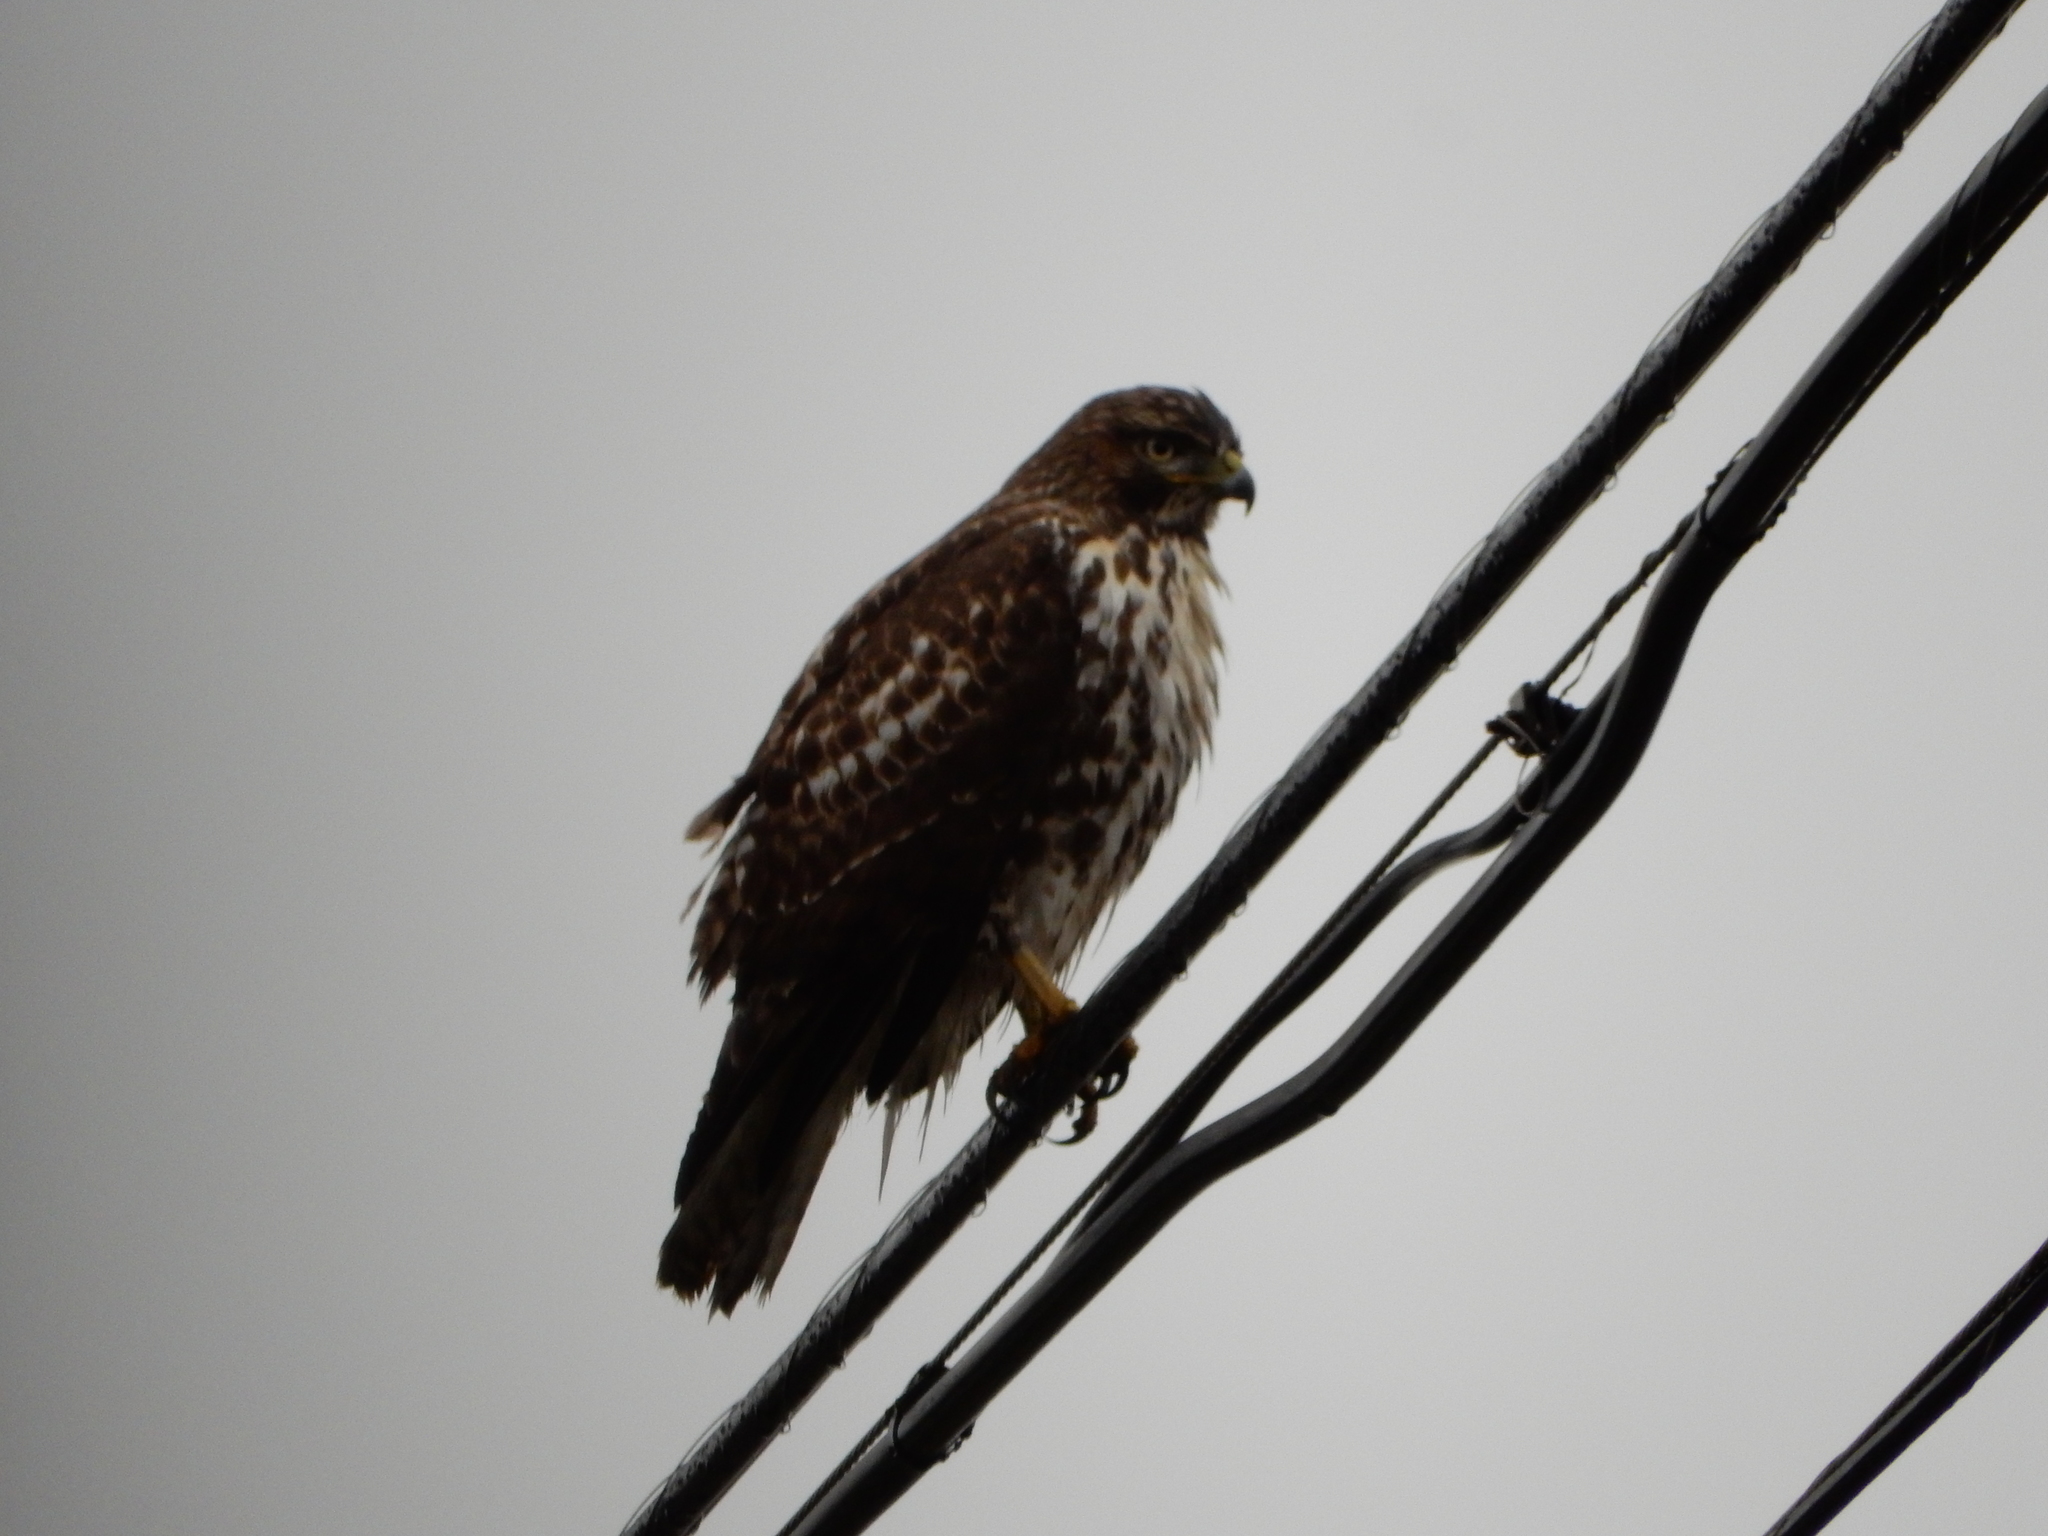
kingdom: Animalia
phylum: Chordata
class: Aves
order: Accipitriformes
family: Accipitridae
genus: Buteo
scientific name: Buteo jamaicensis
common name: Red-tailed hawk
